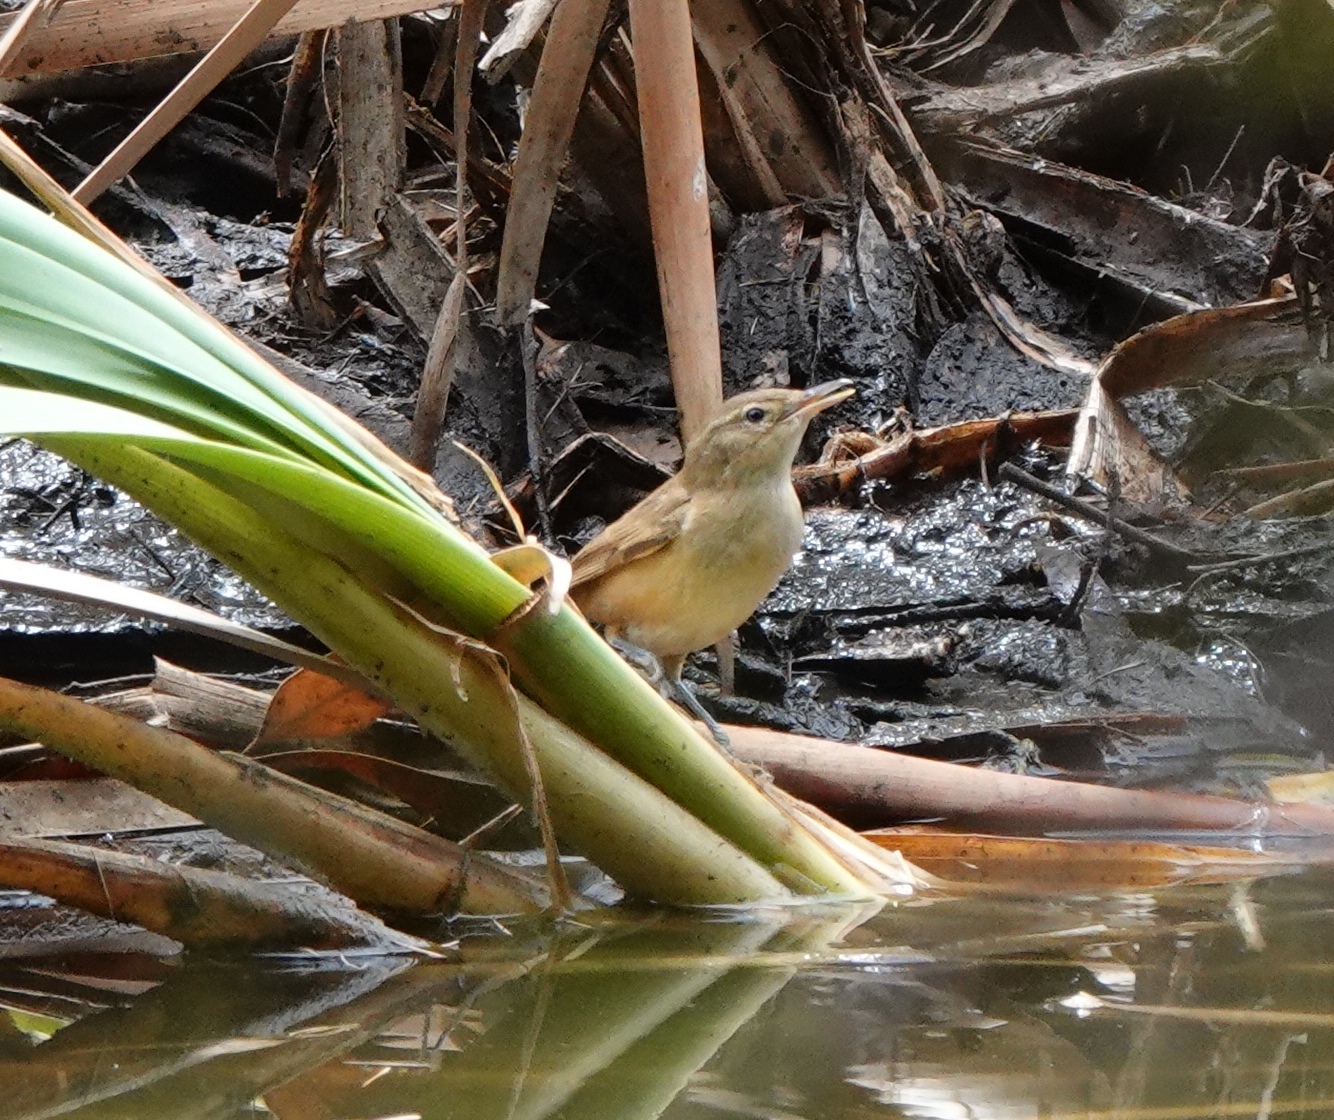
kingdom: Animalia
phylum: Chordata
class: Aves
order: Passeriformes
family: Acrocephalidae
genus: Acrocephalus
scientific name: Acrocephalus australis
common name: Australian reed warbler
